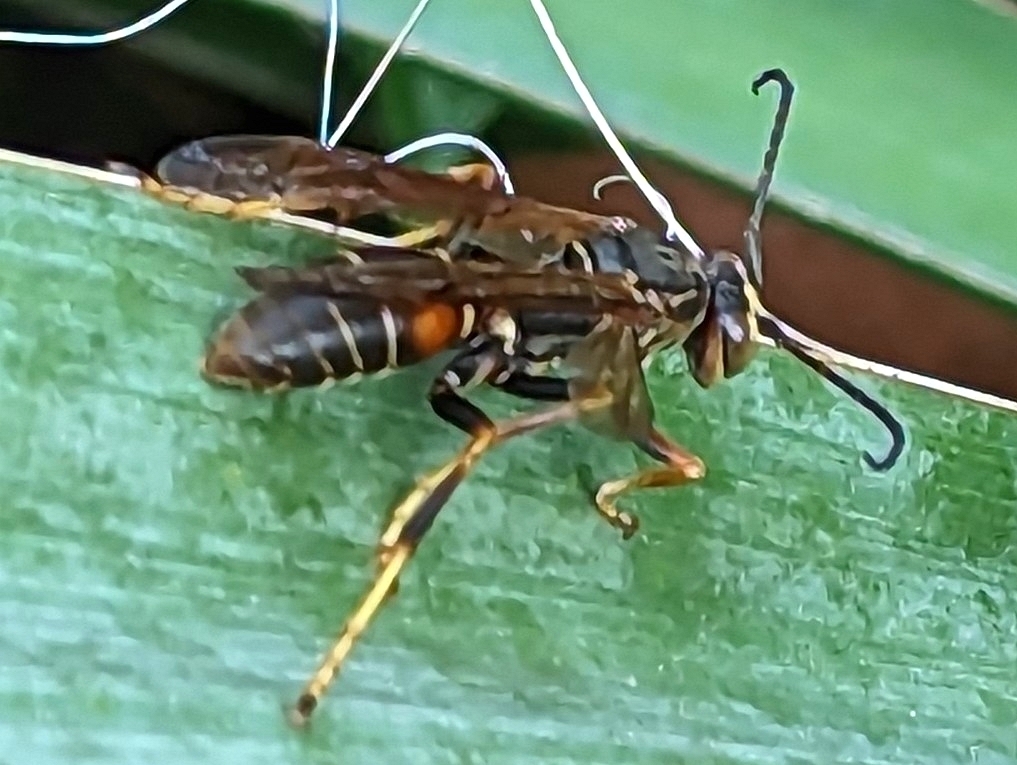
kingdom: Animalia
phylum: Arthropoda
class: Insecta
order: Hymenoptera
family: Eumenidae
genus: Polistes
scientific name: Polistes fuscatus
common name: Dark paper wasp
